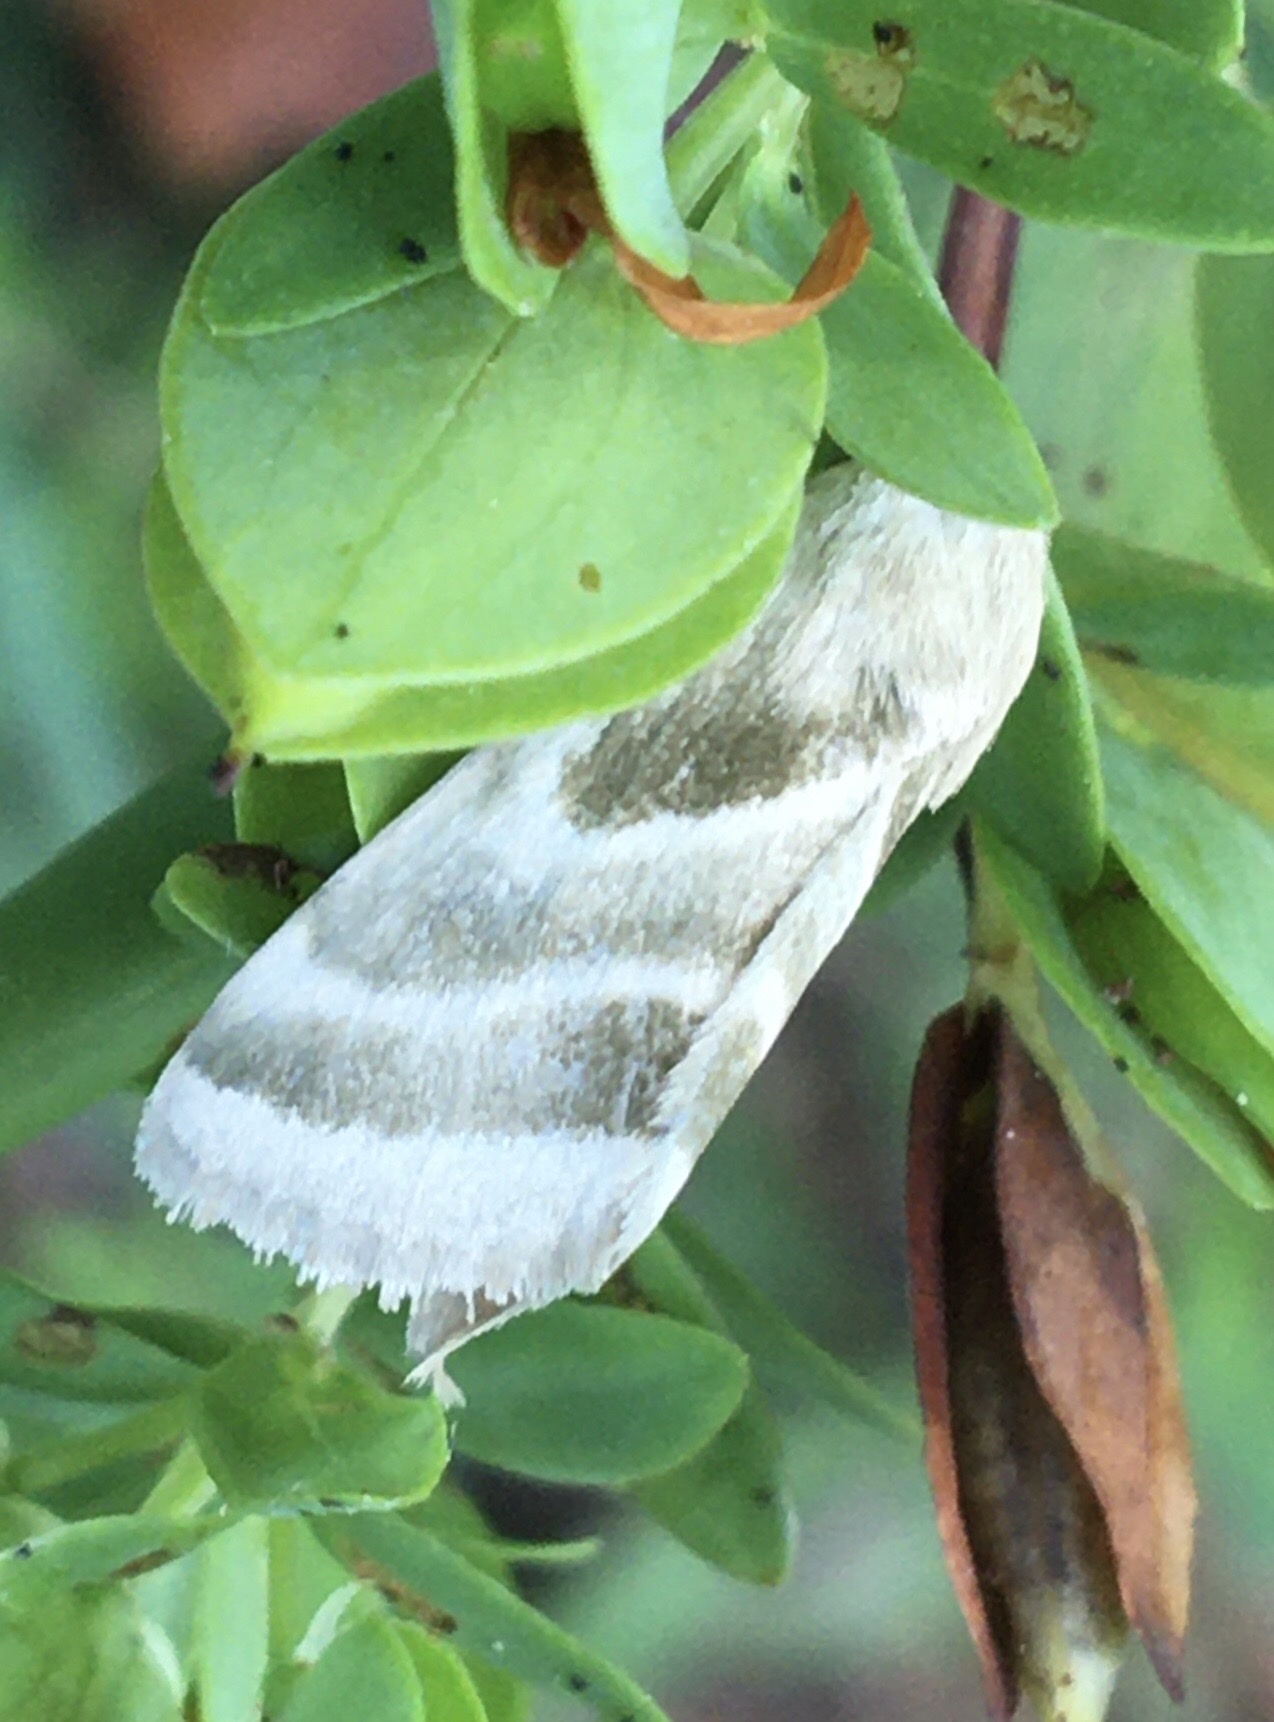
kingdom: Animalia
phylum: Arthropoda
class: Insecta
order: Lepidoptera
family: Noctuidae
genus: Schinia
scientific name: Schinia trifascia
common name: Three-lined flower moth
